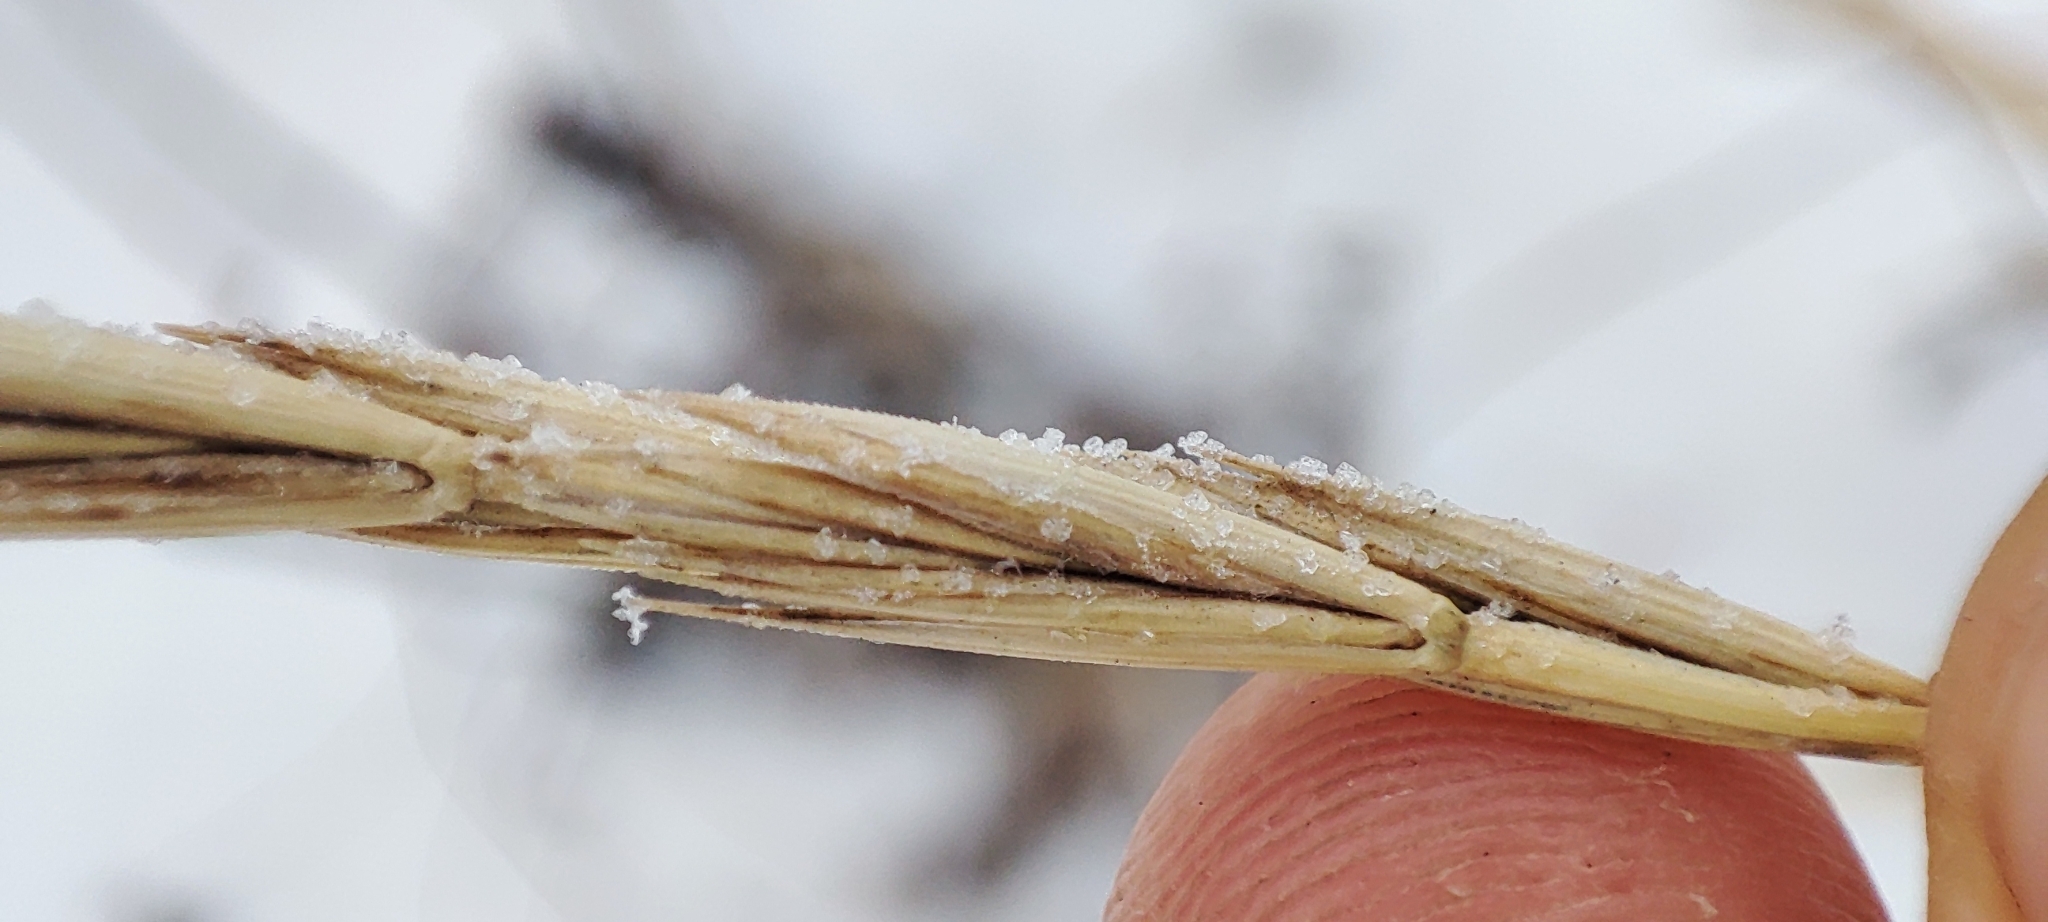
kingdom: Plantae
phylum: Tracheophyta
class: Liliopsida
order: Poales
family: Poaceae
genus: Elymus
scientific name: Elymus repens
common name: Quackgrass
